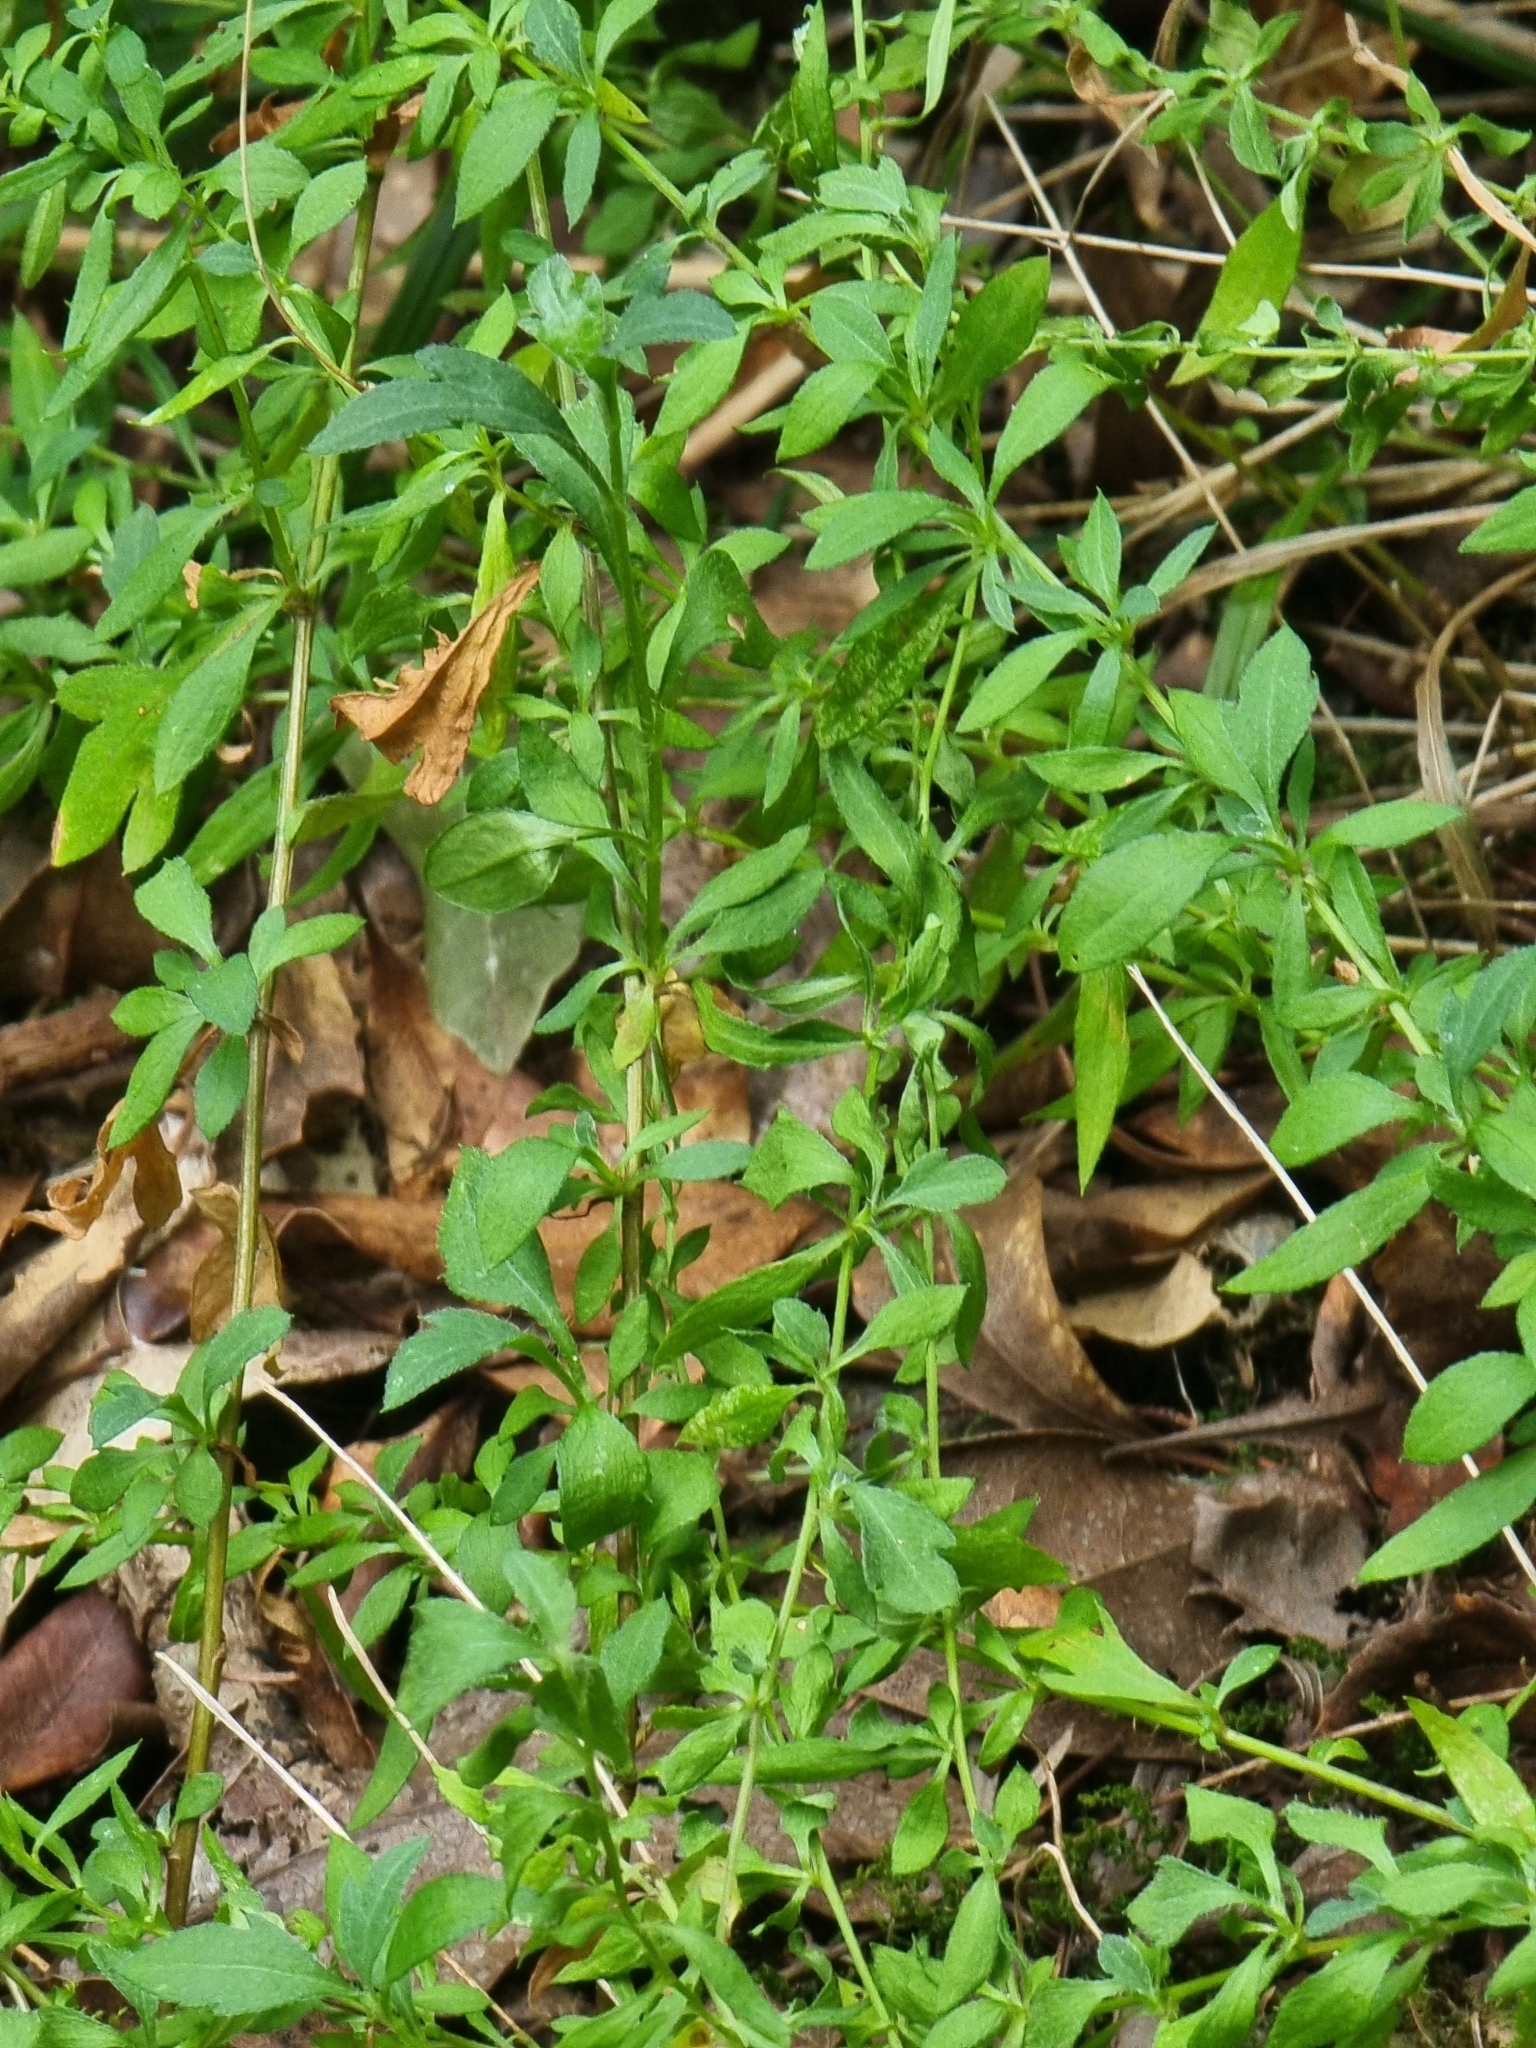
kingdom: Plantae
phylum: Tracheophyta
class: Magnoliopsida
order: Asterales
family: Asteraceae
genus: Erigeron
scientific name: Erigeron karvinskianus
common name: Mexican fleabane
